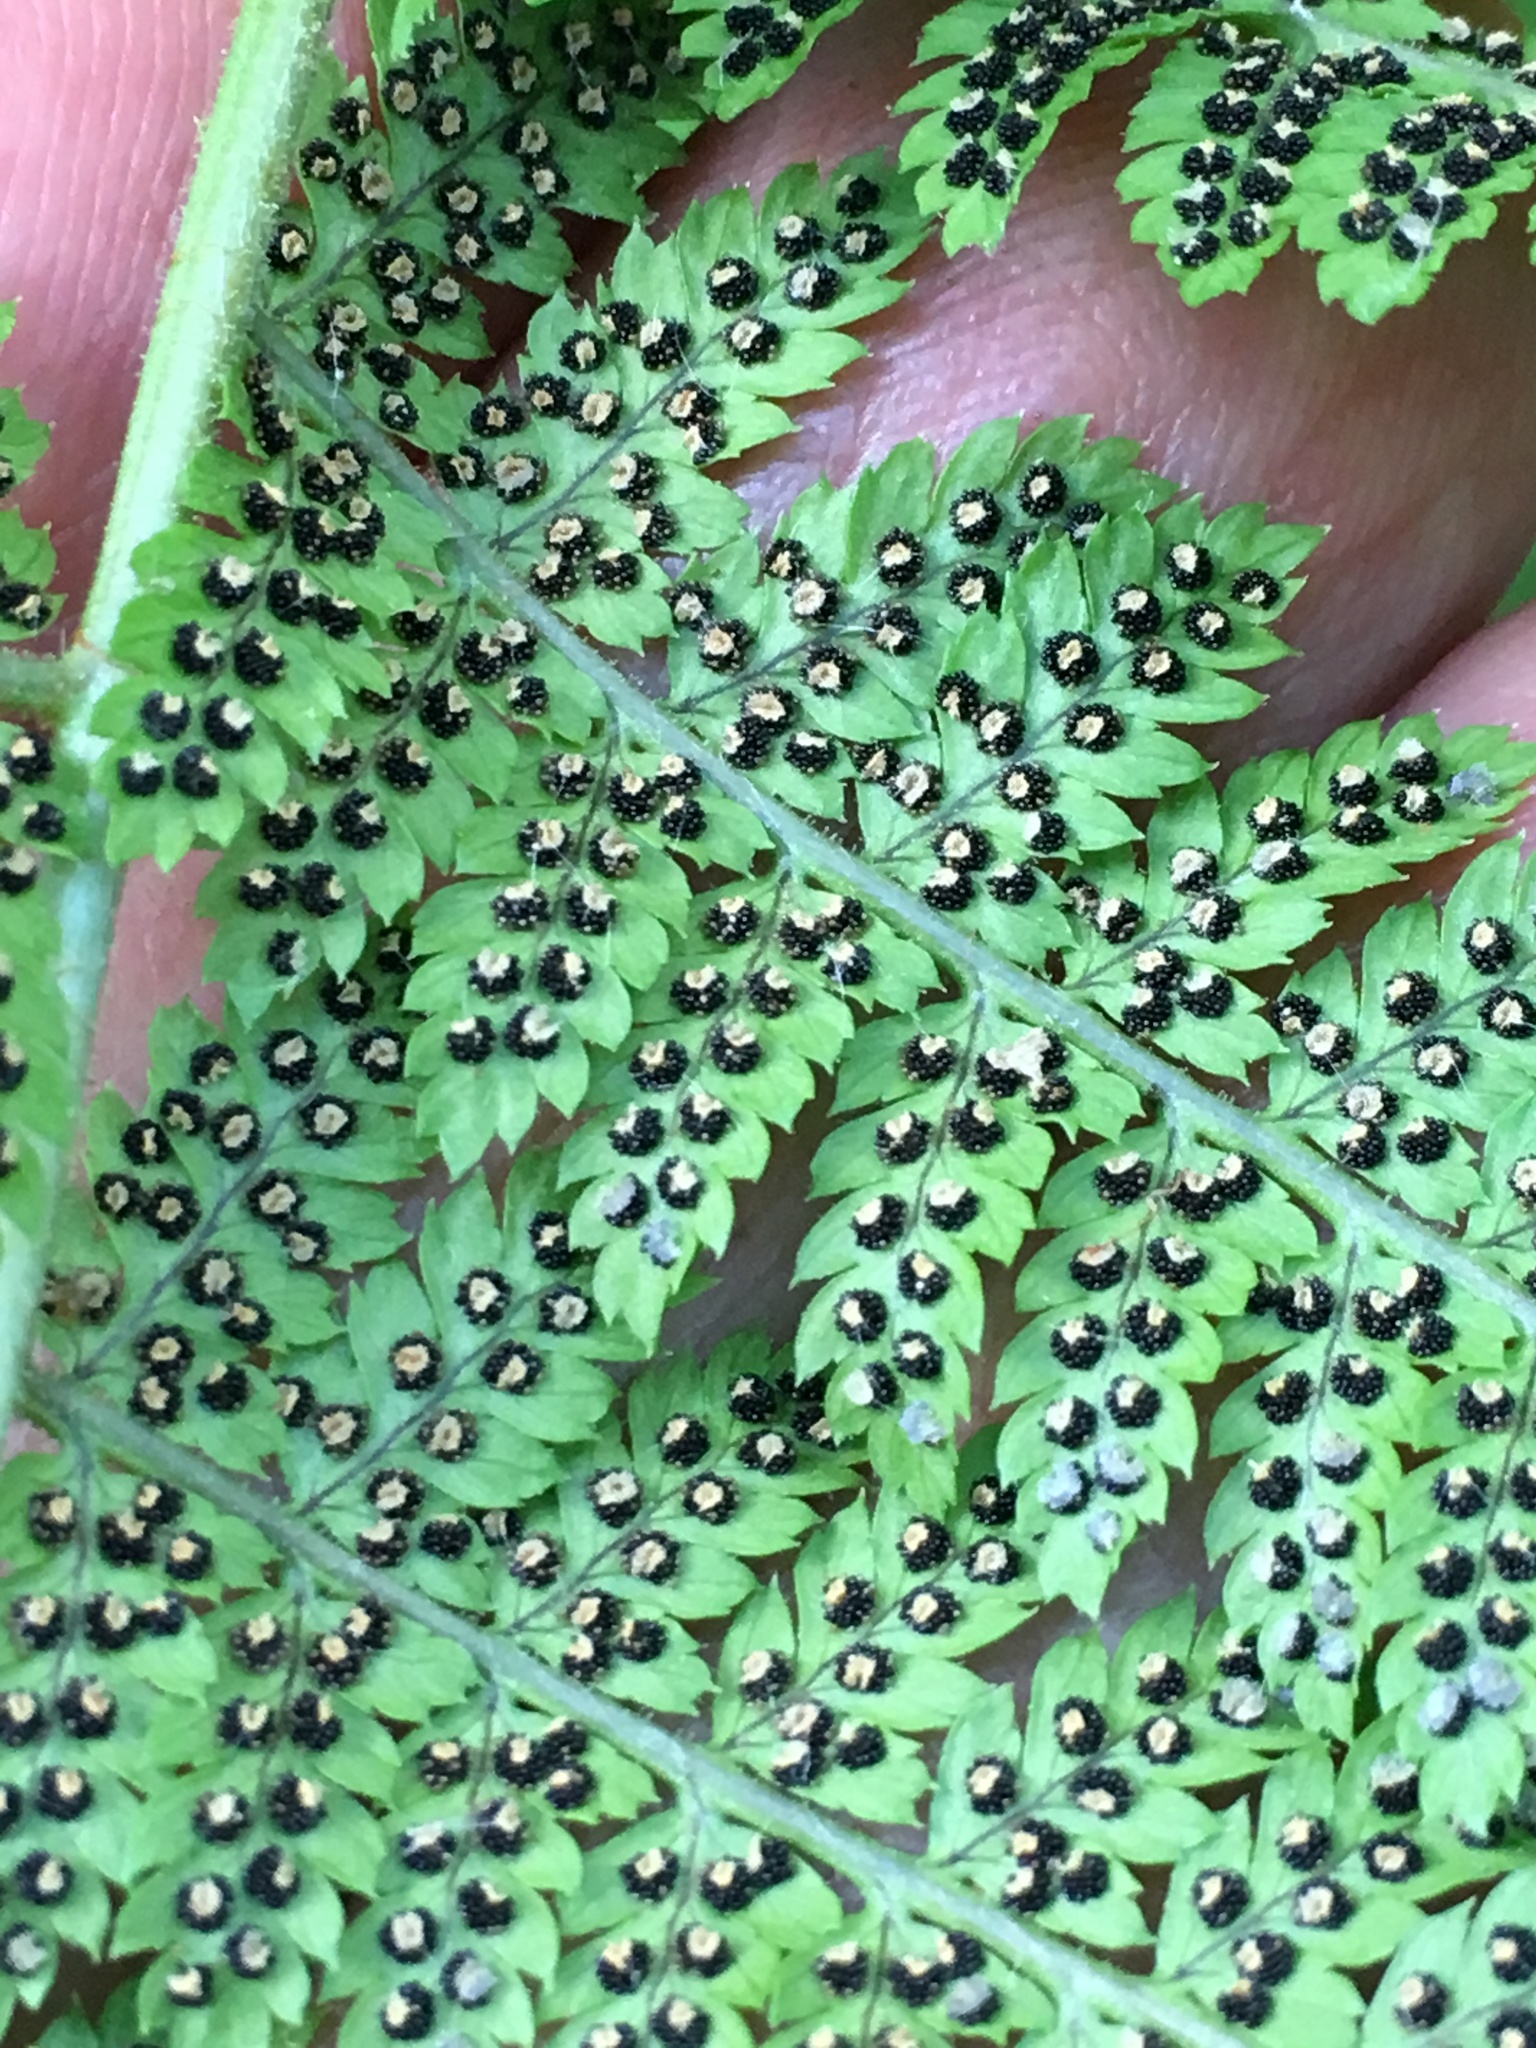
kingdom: Plantae
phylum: Tracheophyta
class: Polypodiopsida
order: Polypodiales
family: Dryopteridaceae
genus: Dryopteris
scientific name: Dryopteris intermedia
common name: Evergreen wood fern
